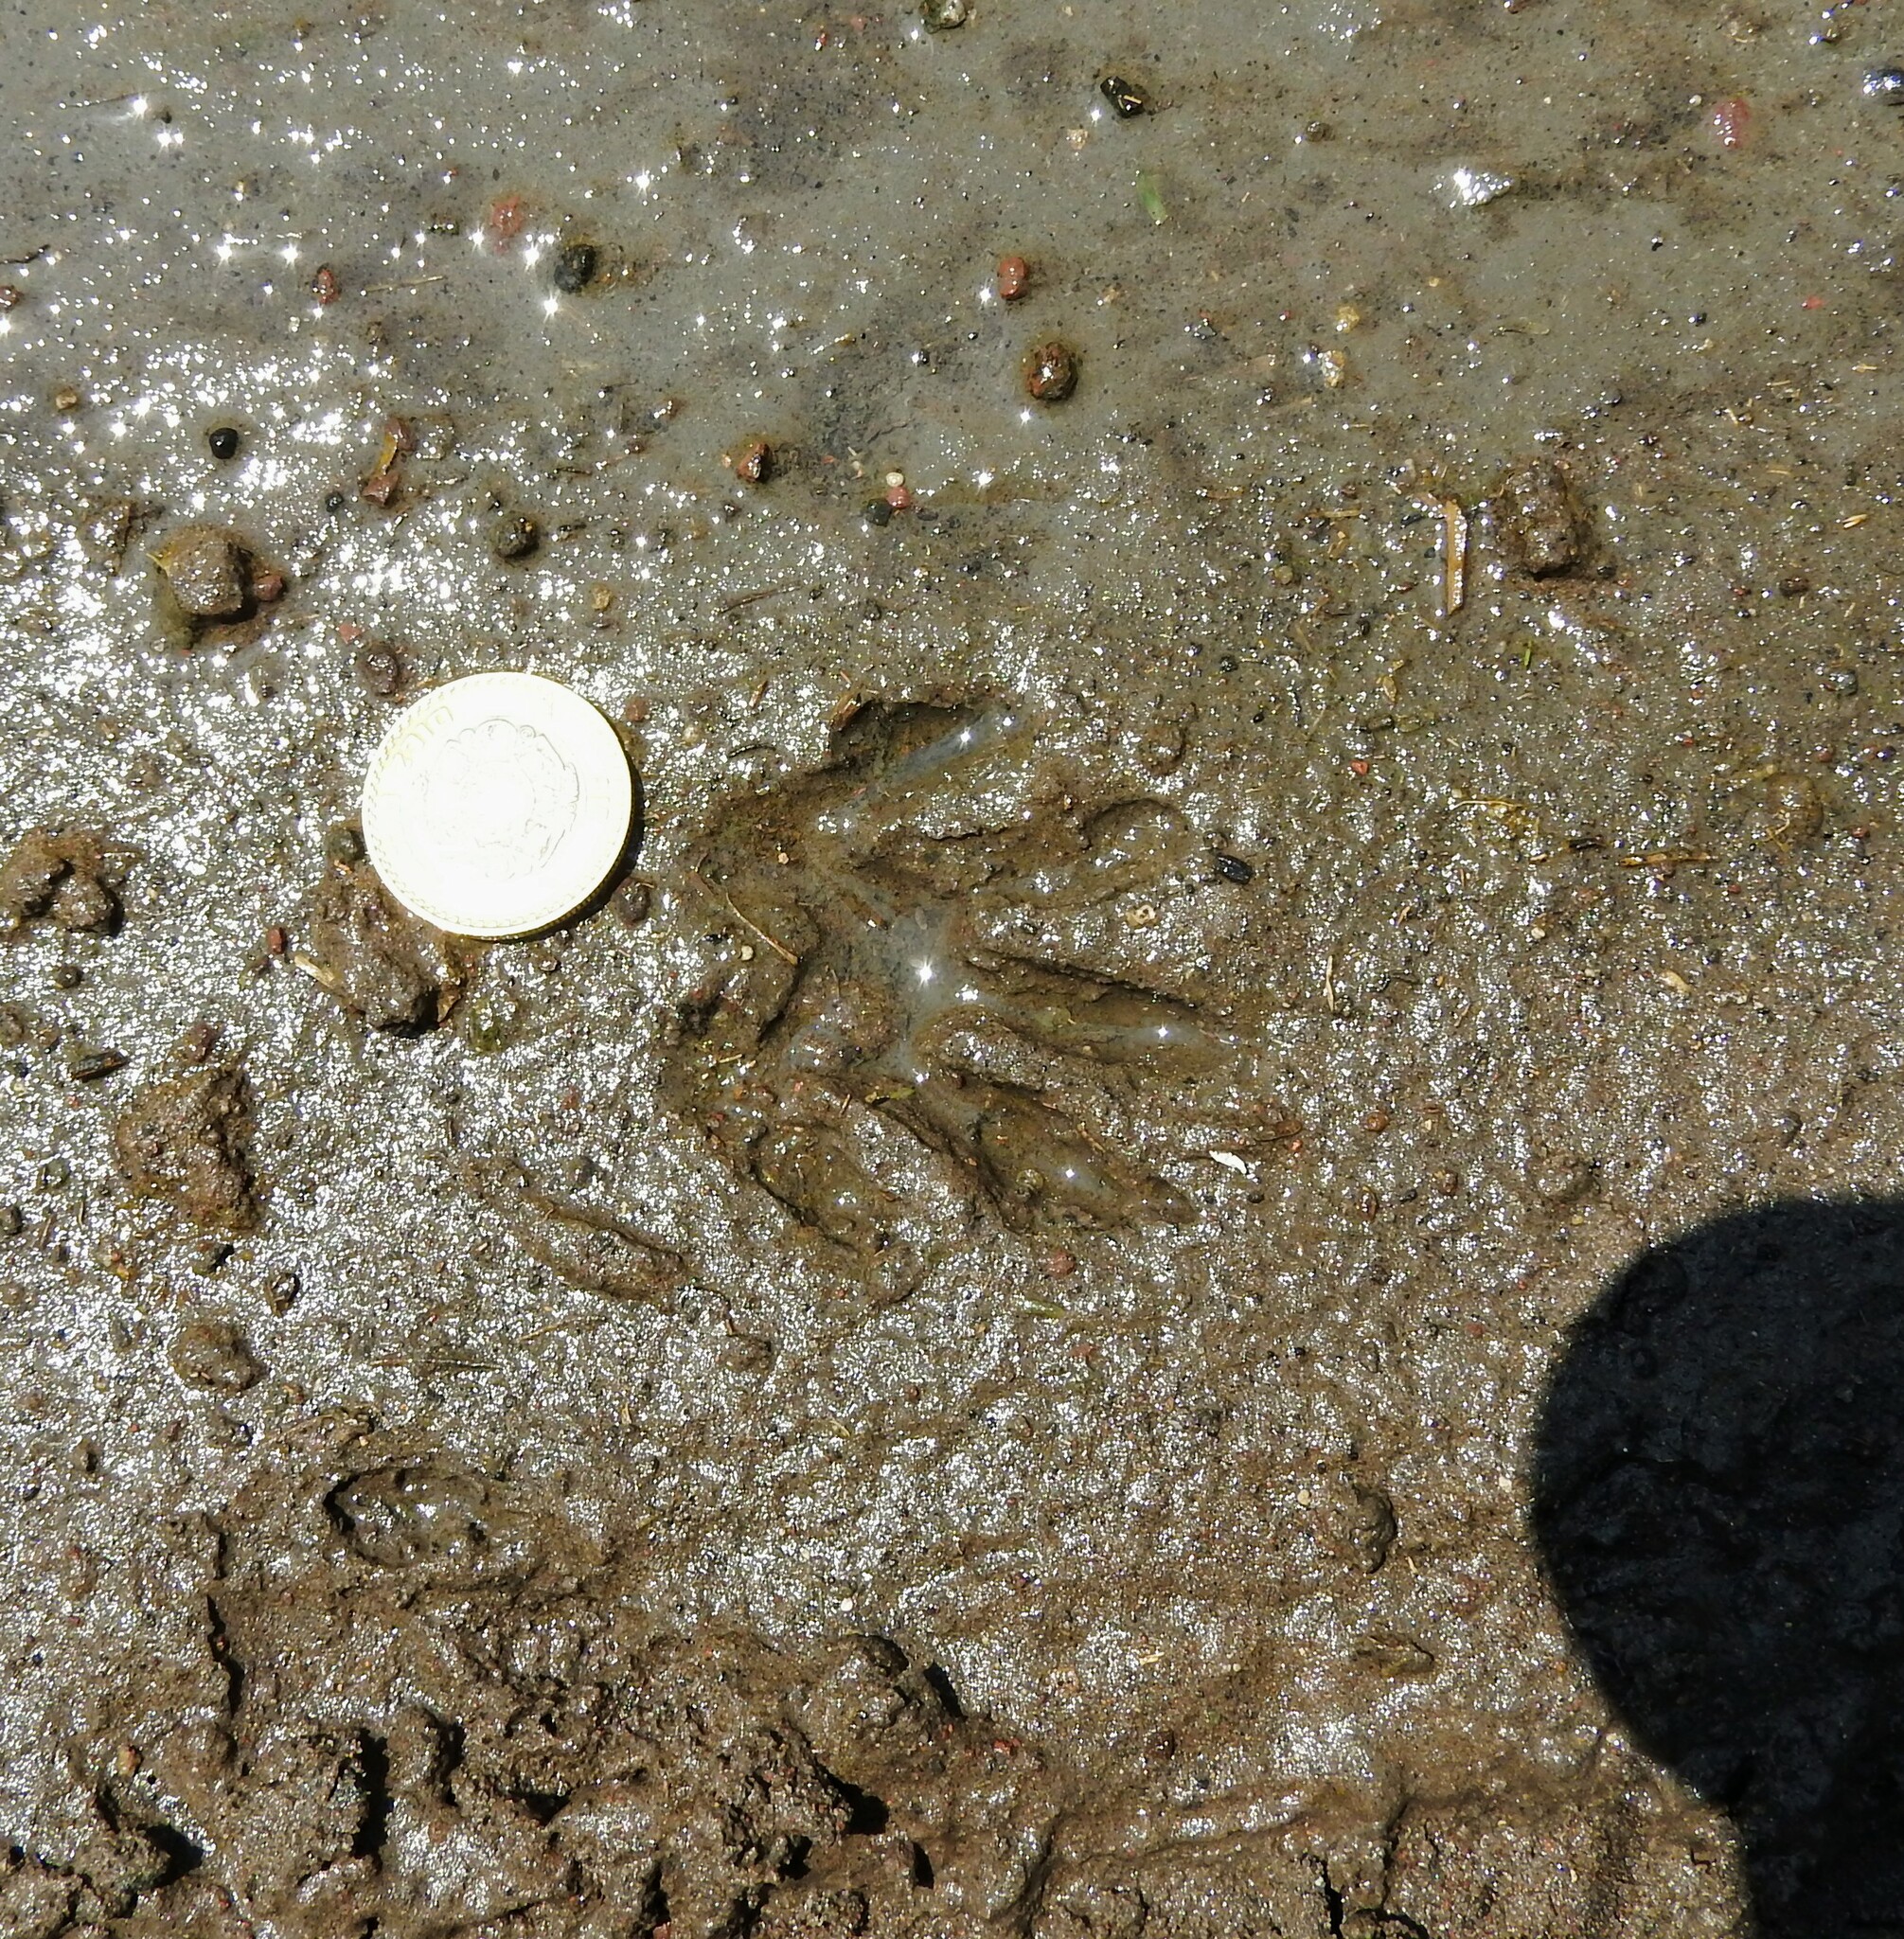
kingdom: Animalia
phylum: Chordata
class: Mammalia
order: Carnivora
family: Procyonidae
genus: Procyon
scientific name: Procyon lotor
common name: Raccoon
